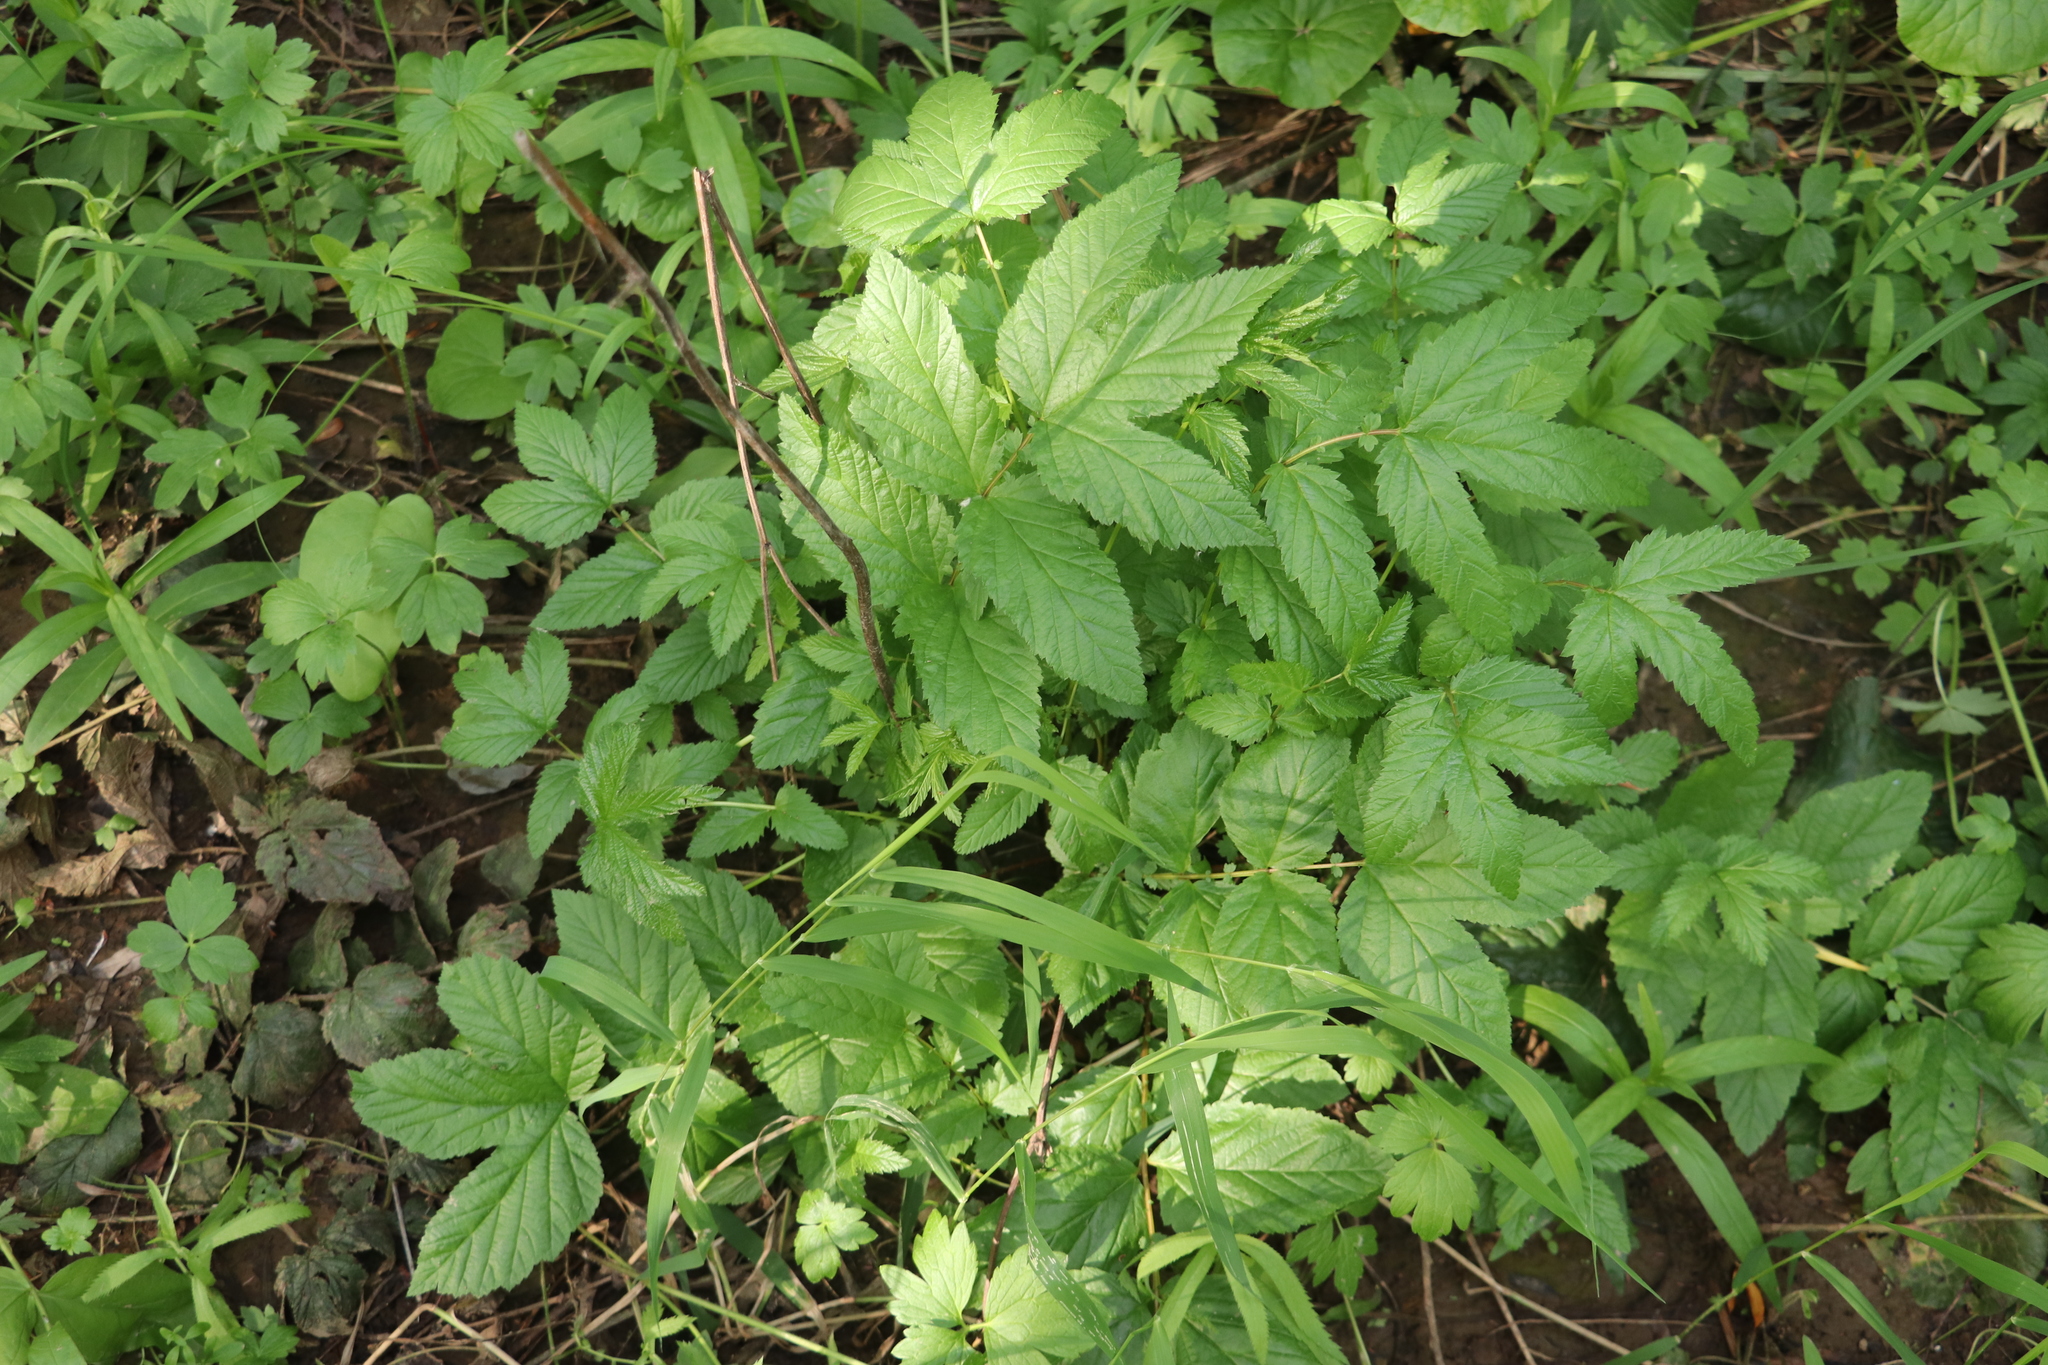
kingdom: Plantae
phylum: Tracheophyta
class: Magnoliopsida
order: Rosales
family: Rosaceae
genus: Filipendula
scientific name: Filipendula ulmaria
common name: Meadowsweet
